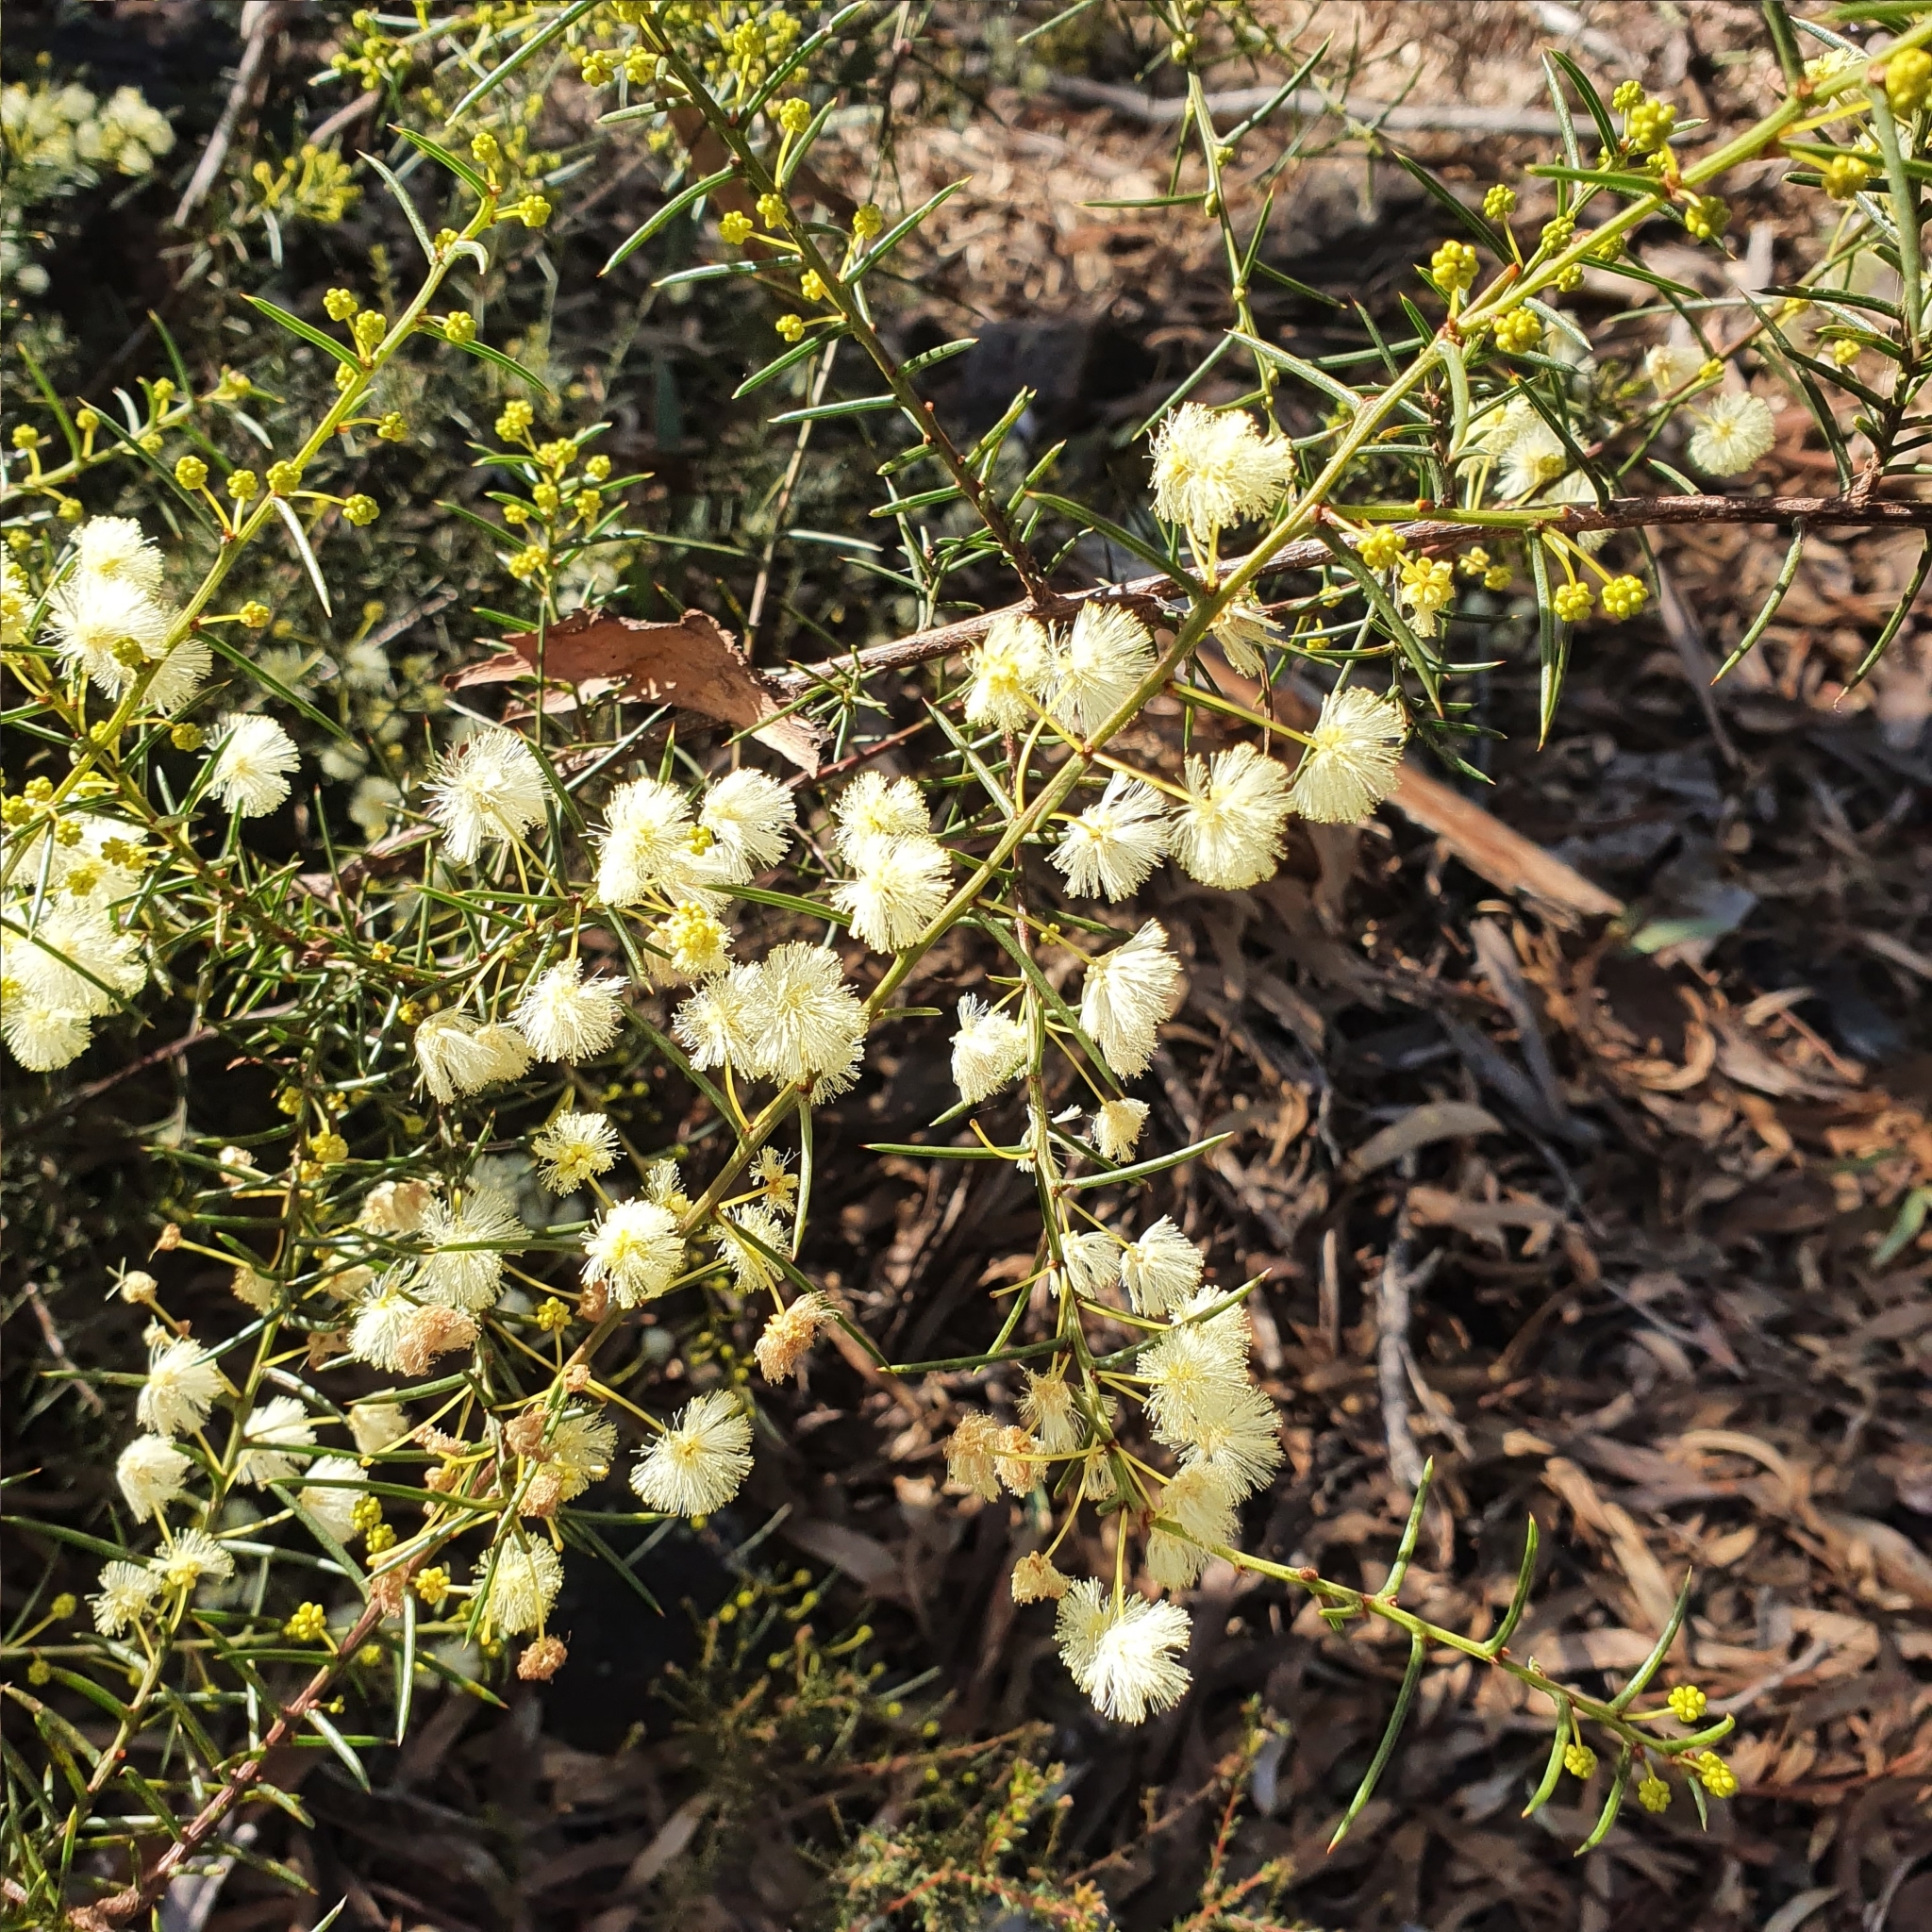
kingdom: Plantae
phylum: Tracheophyta
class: Magnoliopsida
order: Fabales
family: Fabaceae
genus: Acacia
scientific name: Acacia genistifolia
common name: Early wattle
